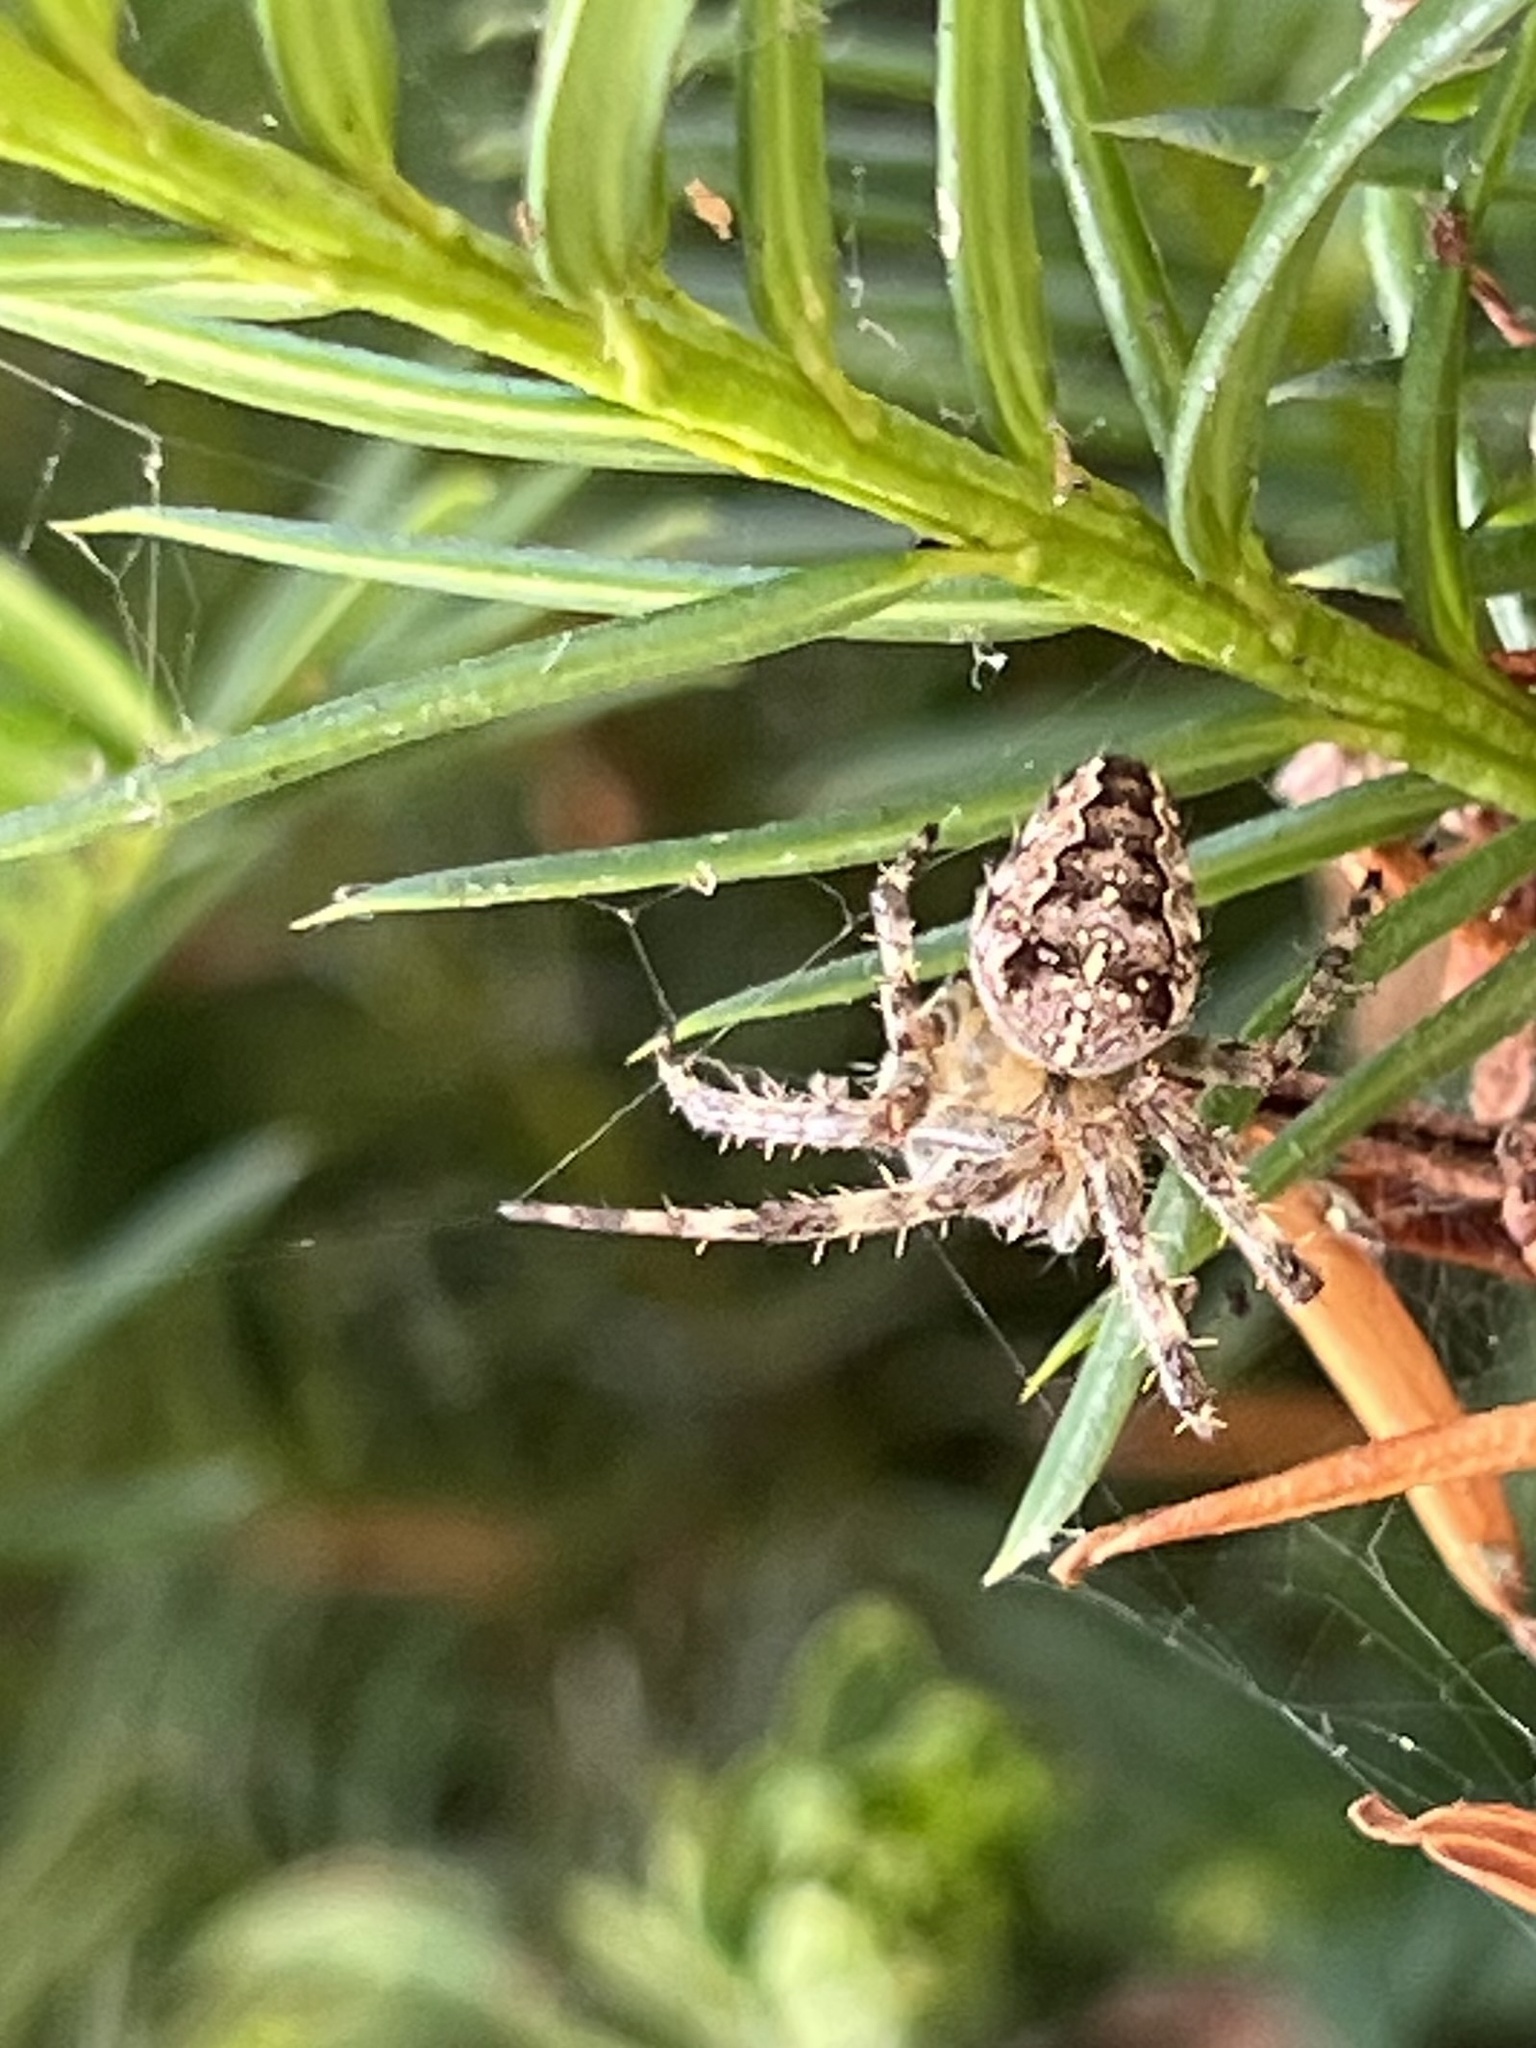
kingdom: Animalia
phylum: Arthropoda
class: Arachnida
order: Araneae
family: Araneidae
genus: Araneus
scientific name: Araneus diadematus
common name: Cross orbweaver
